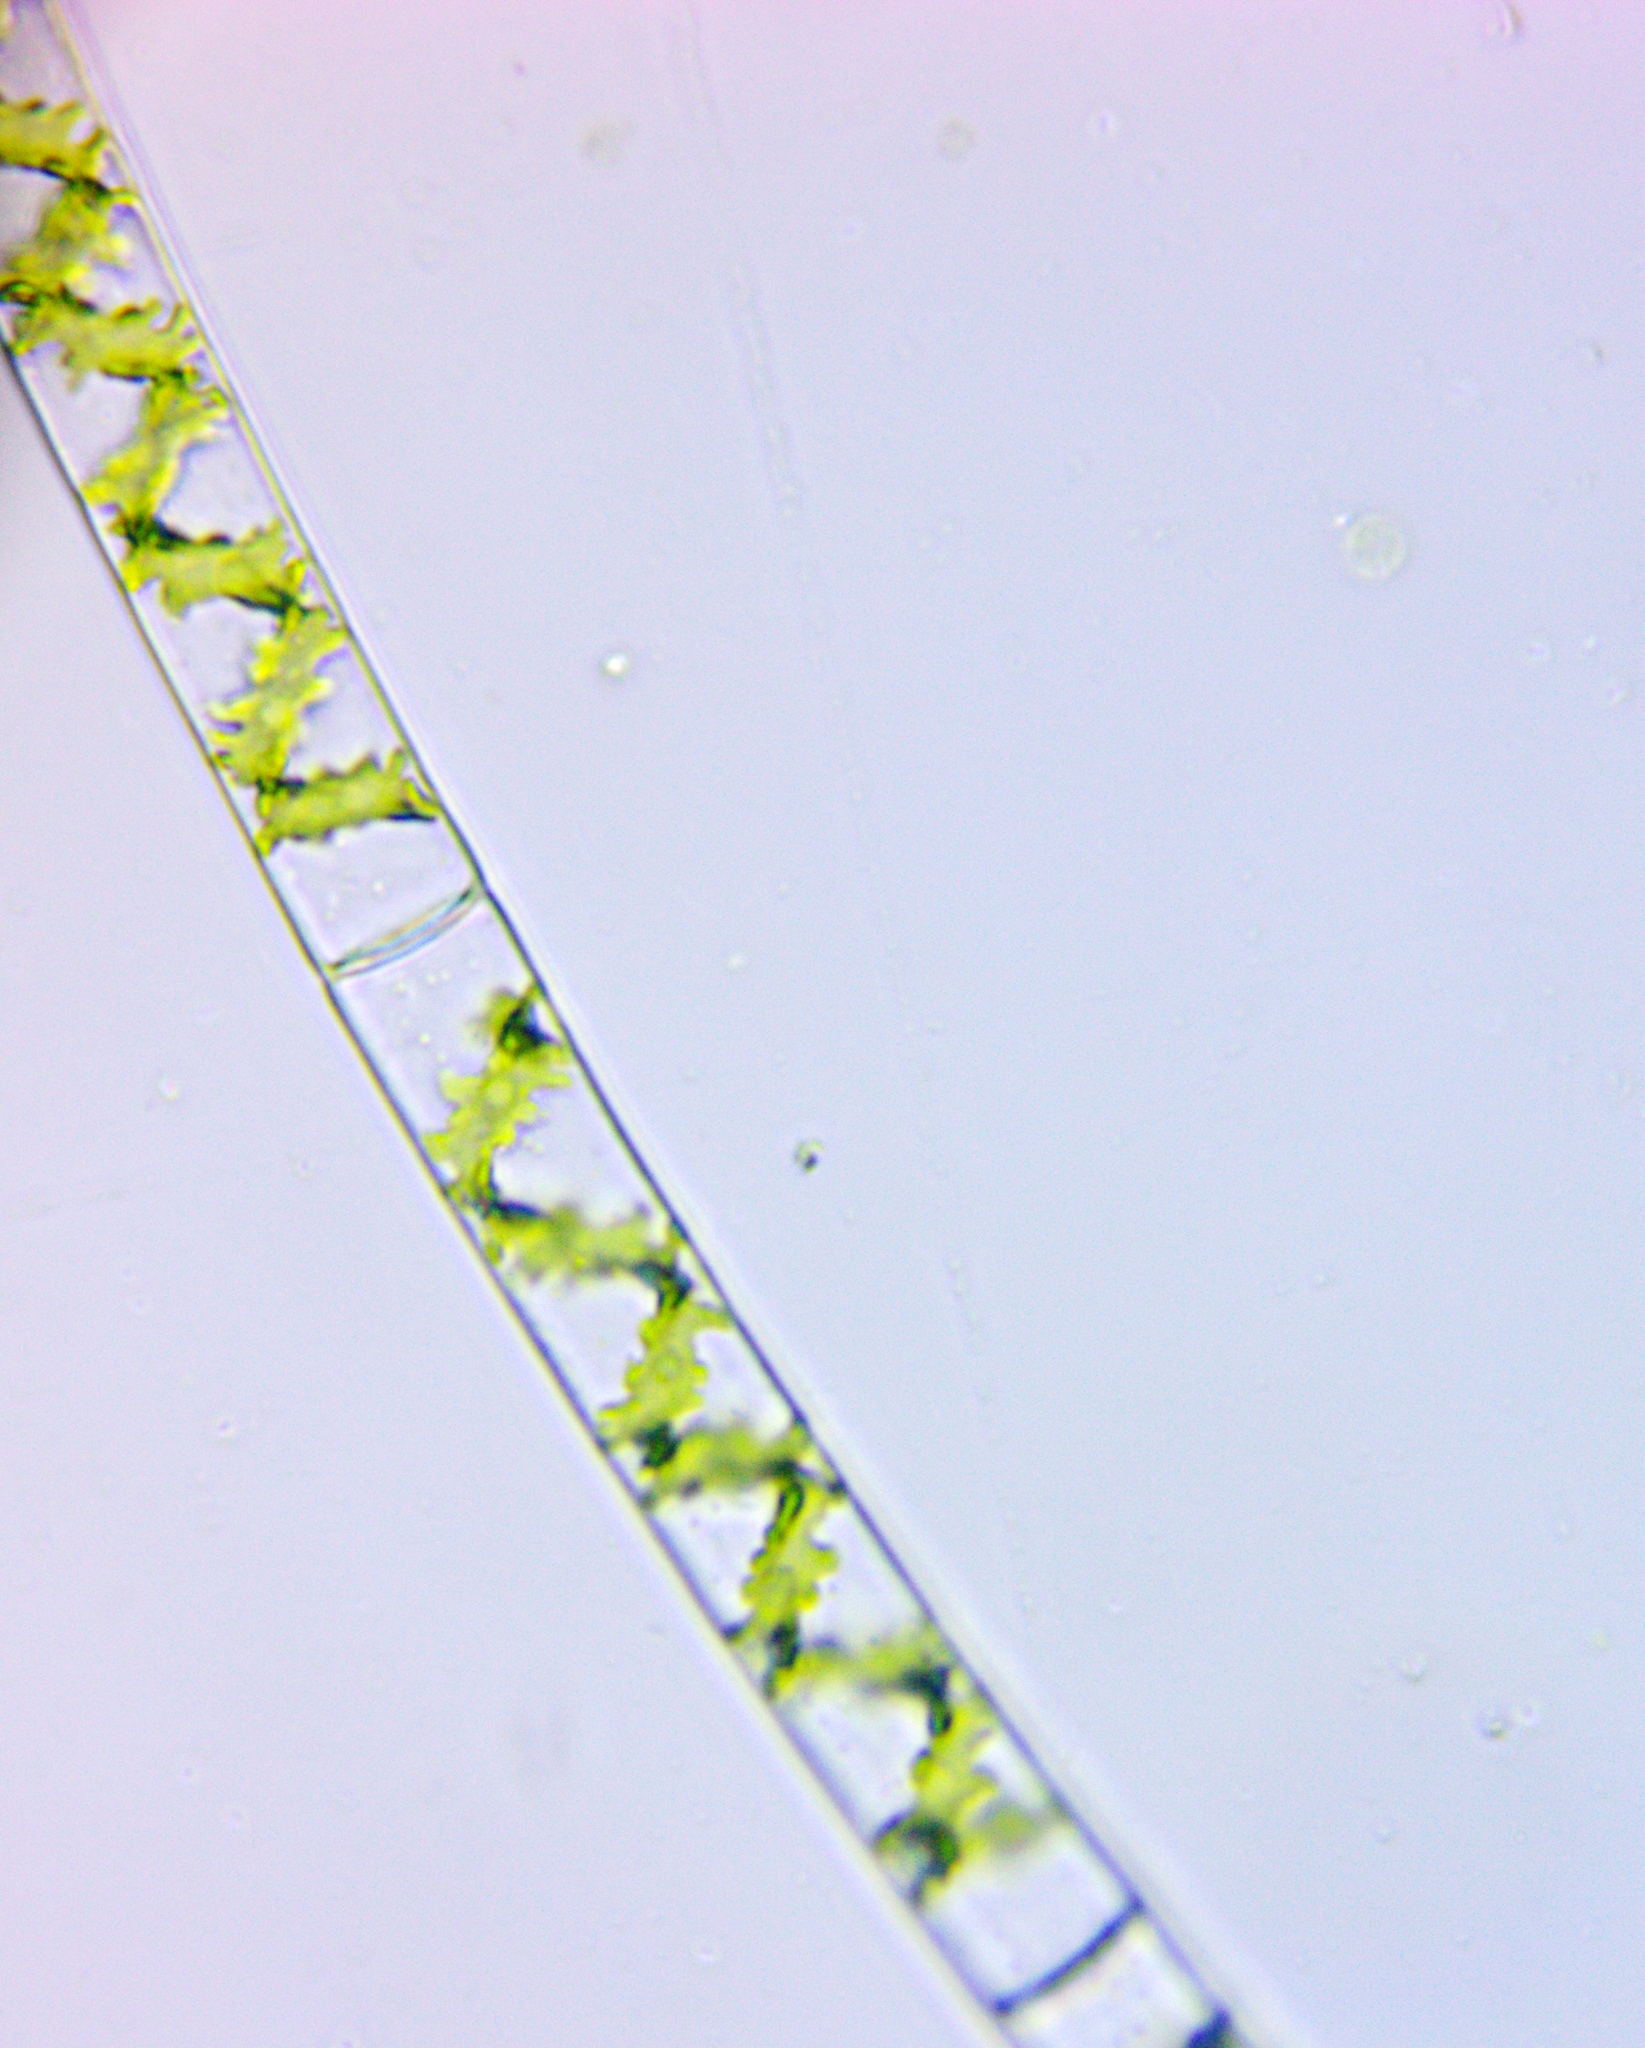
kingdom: Plantae
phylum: Charophyta
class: Zygnematophyceae
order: Zygnematales
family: Zygnemataceae
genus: Spirogyra
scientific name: Spirogyra
